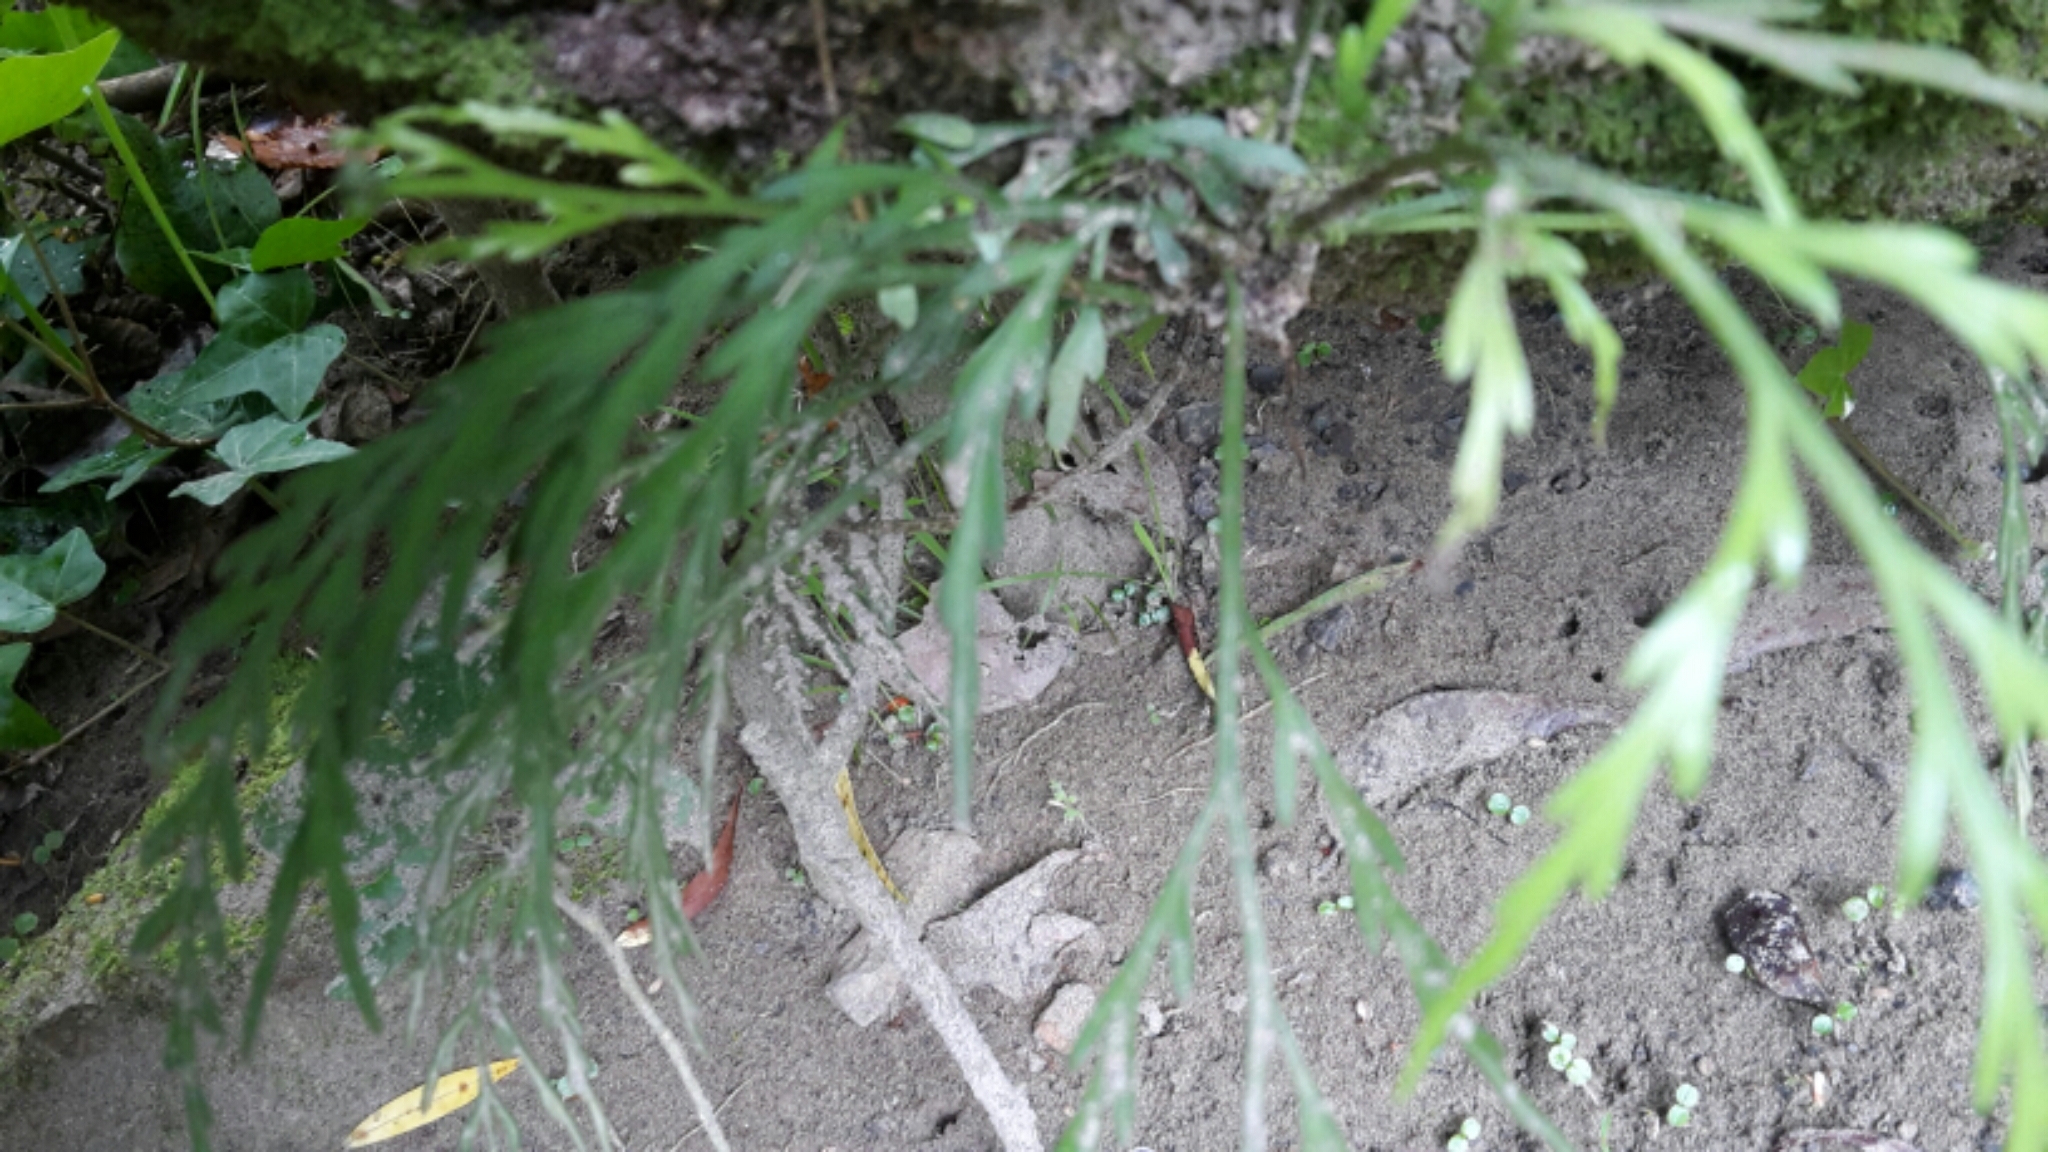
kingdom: Plantae
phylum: Tracheophyta
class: Polypodiopsida
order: Polypodiales
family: Aspleniaceae
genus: Asplenium
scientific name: Asplenium flaccidum
